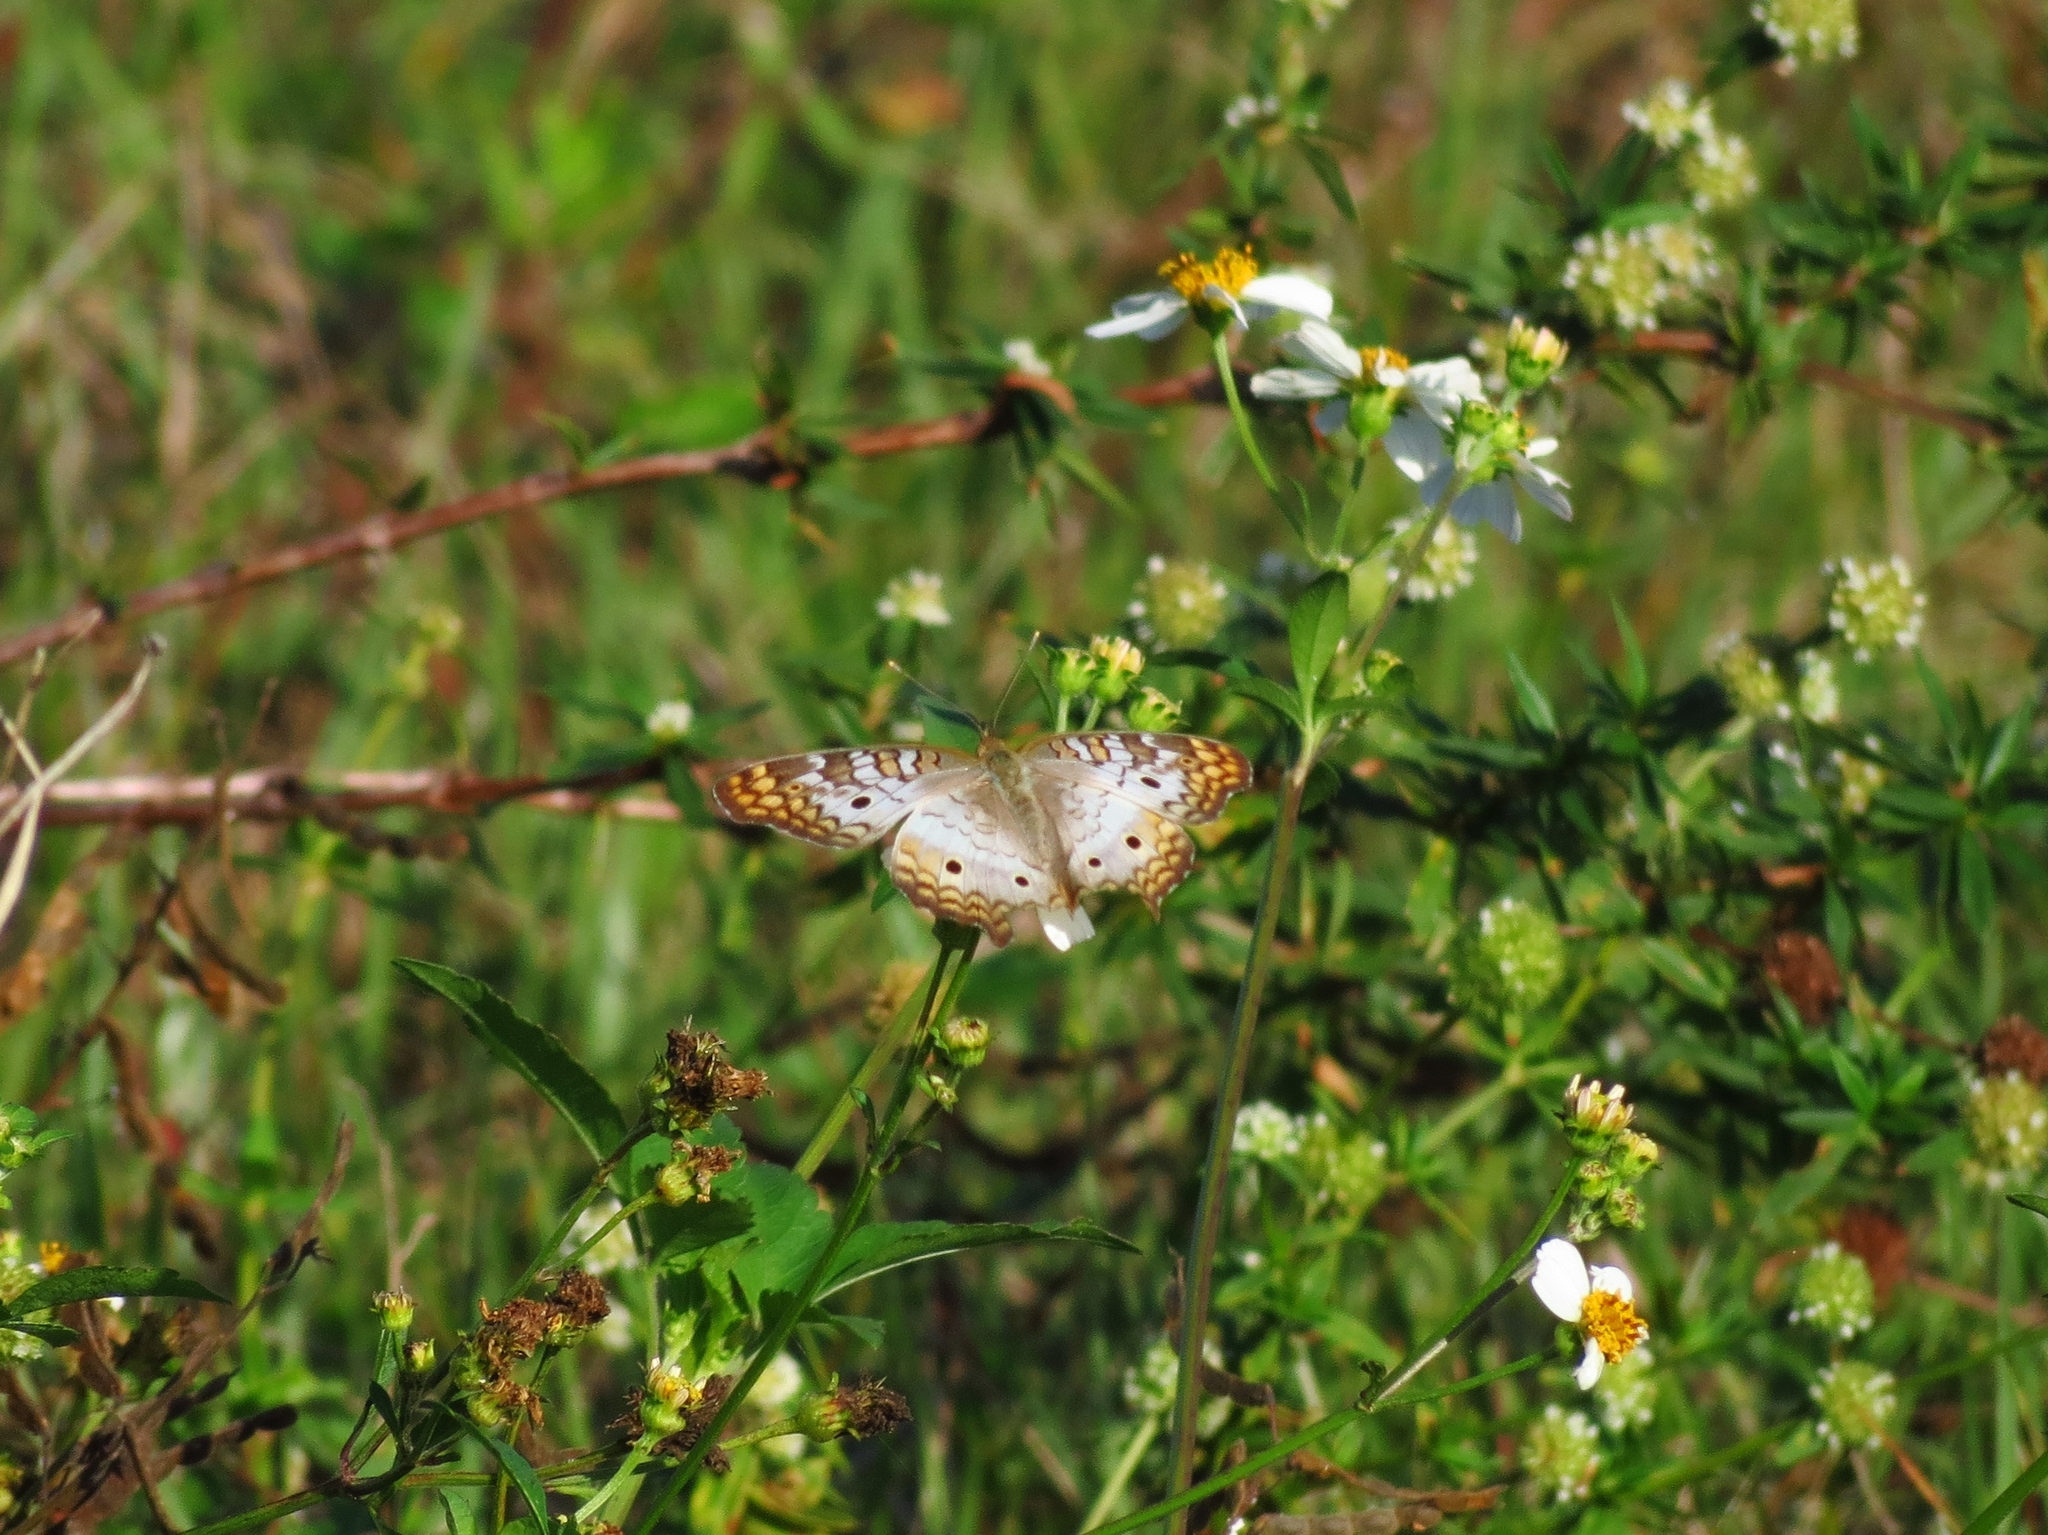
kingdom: Animalia
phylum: Arthropoda
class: Insecta
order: Lepidoptera
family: Nymphalidae
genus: Anartia
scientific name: Anartia jatrophae
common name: White peacock
